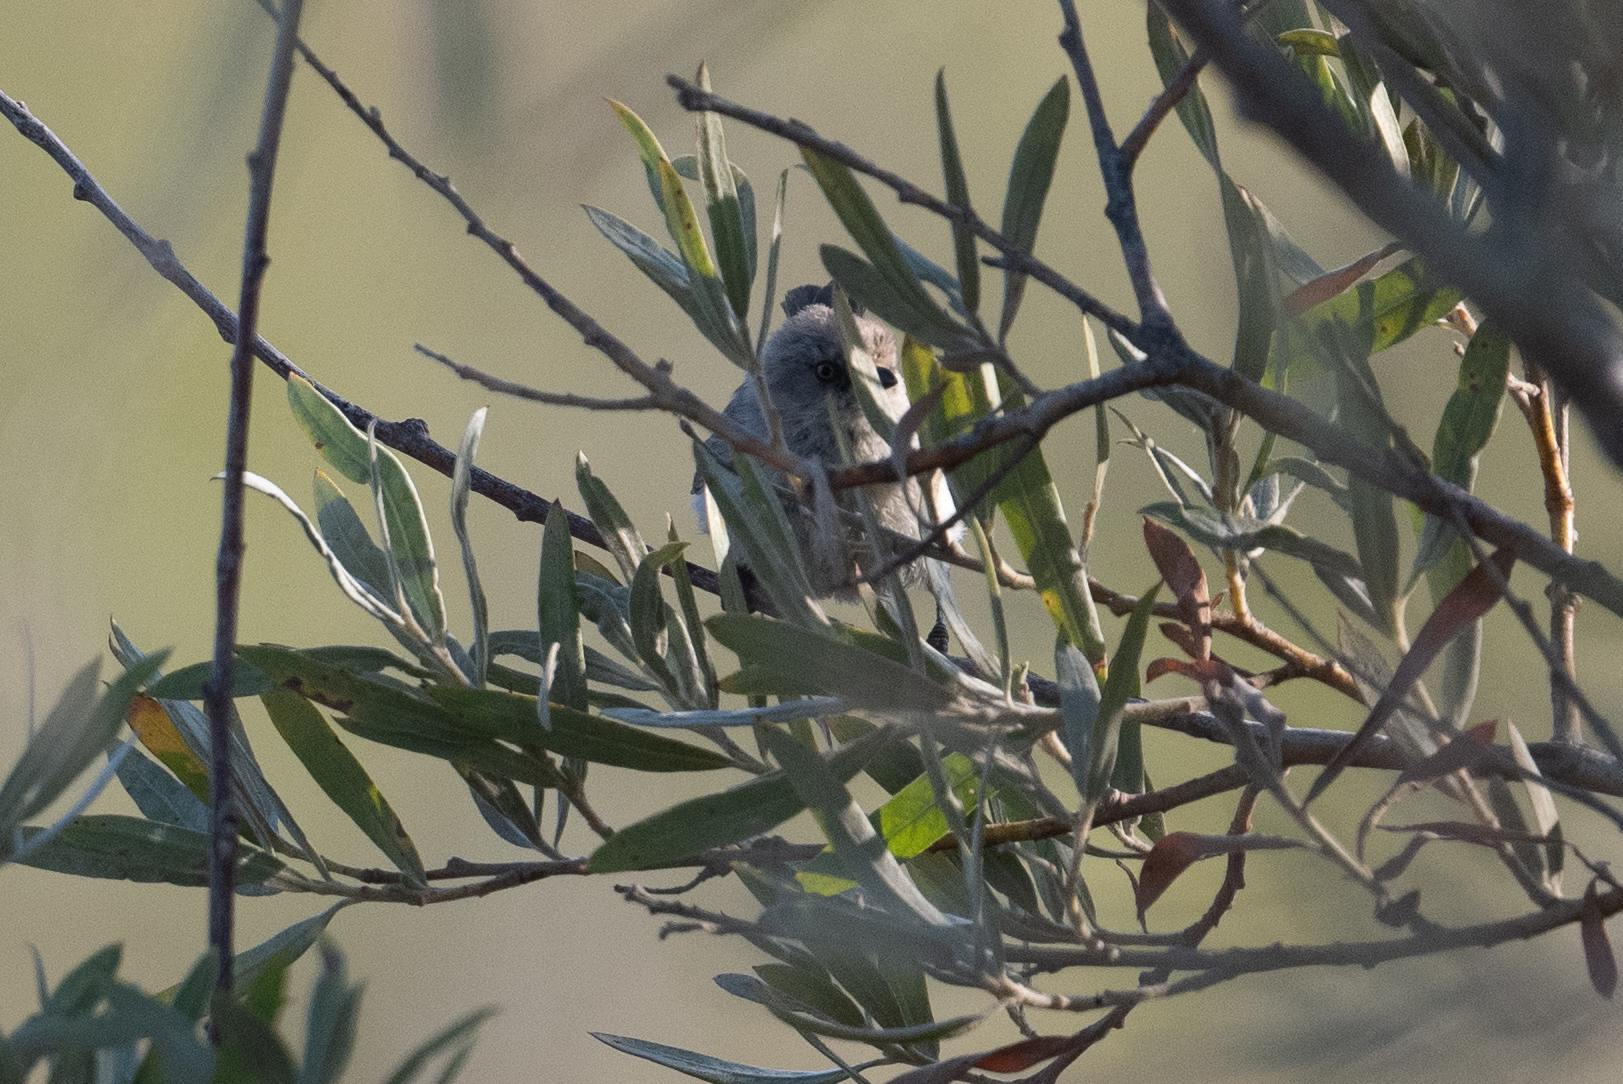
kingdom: Animalia
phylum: Chordata
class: Aves
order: Passeriformes
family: Aegithalidae
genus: Psaltriparus
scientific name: Psaltriparus minimus
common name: American bushtit
